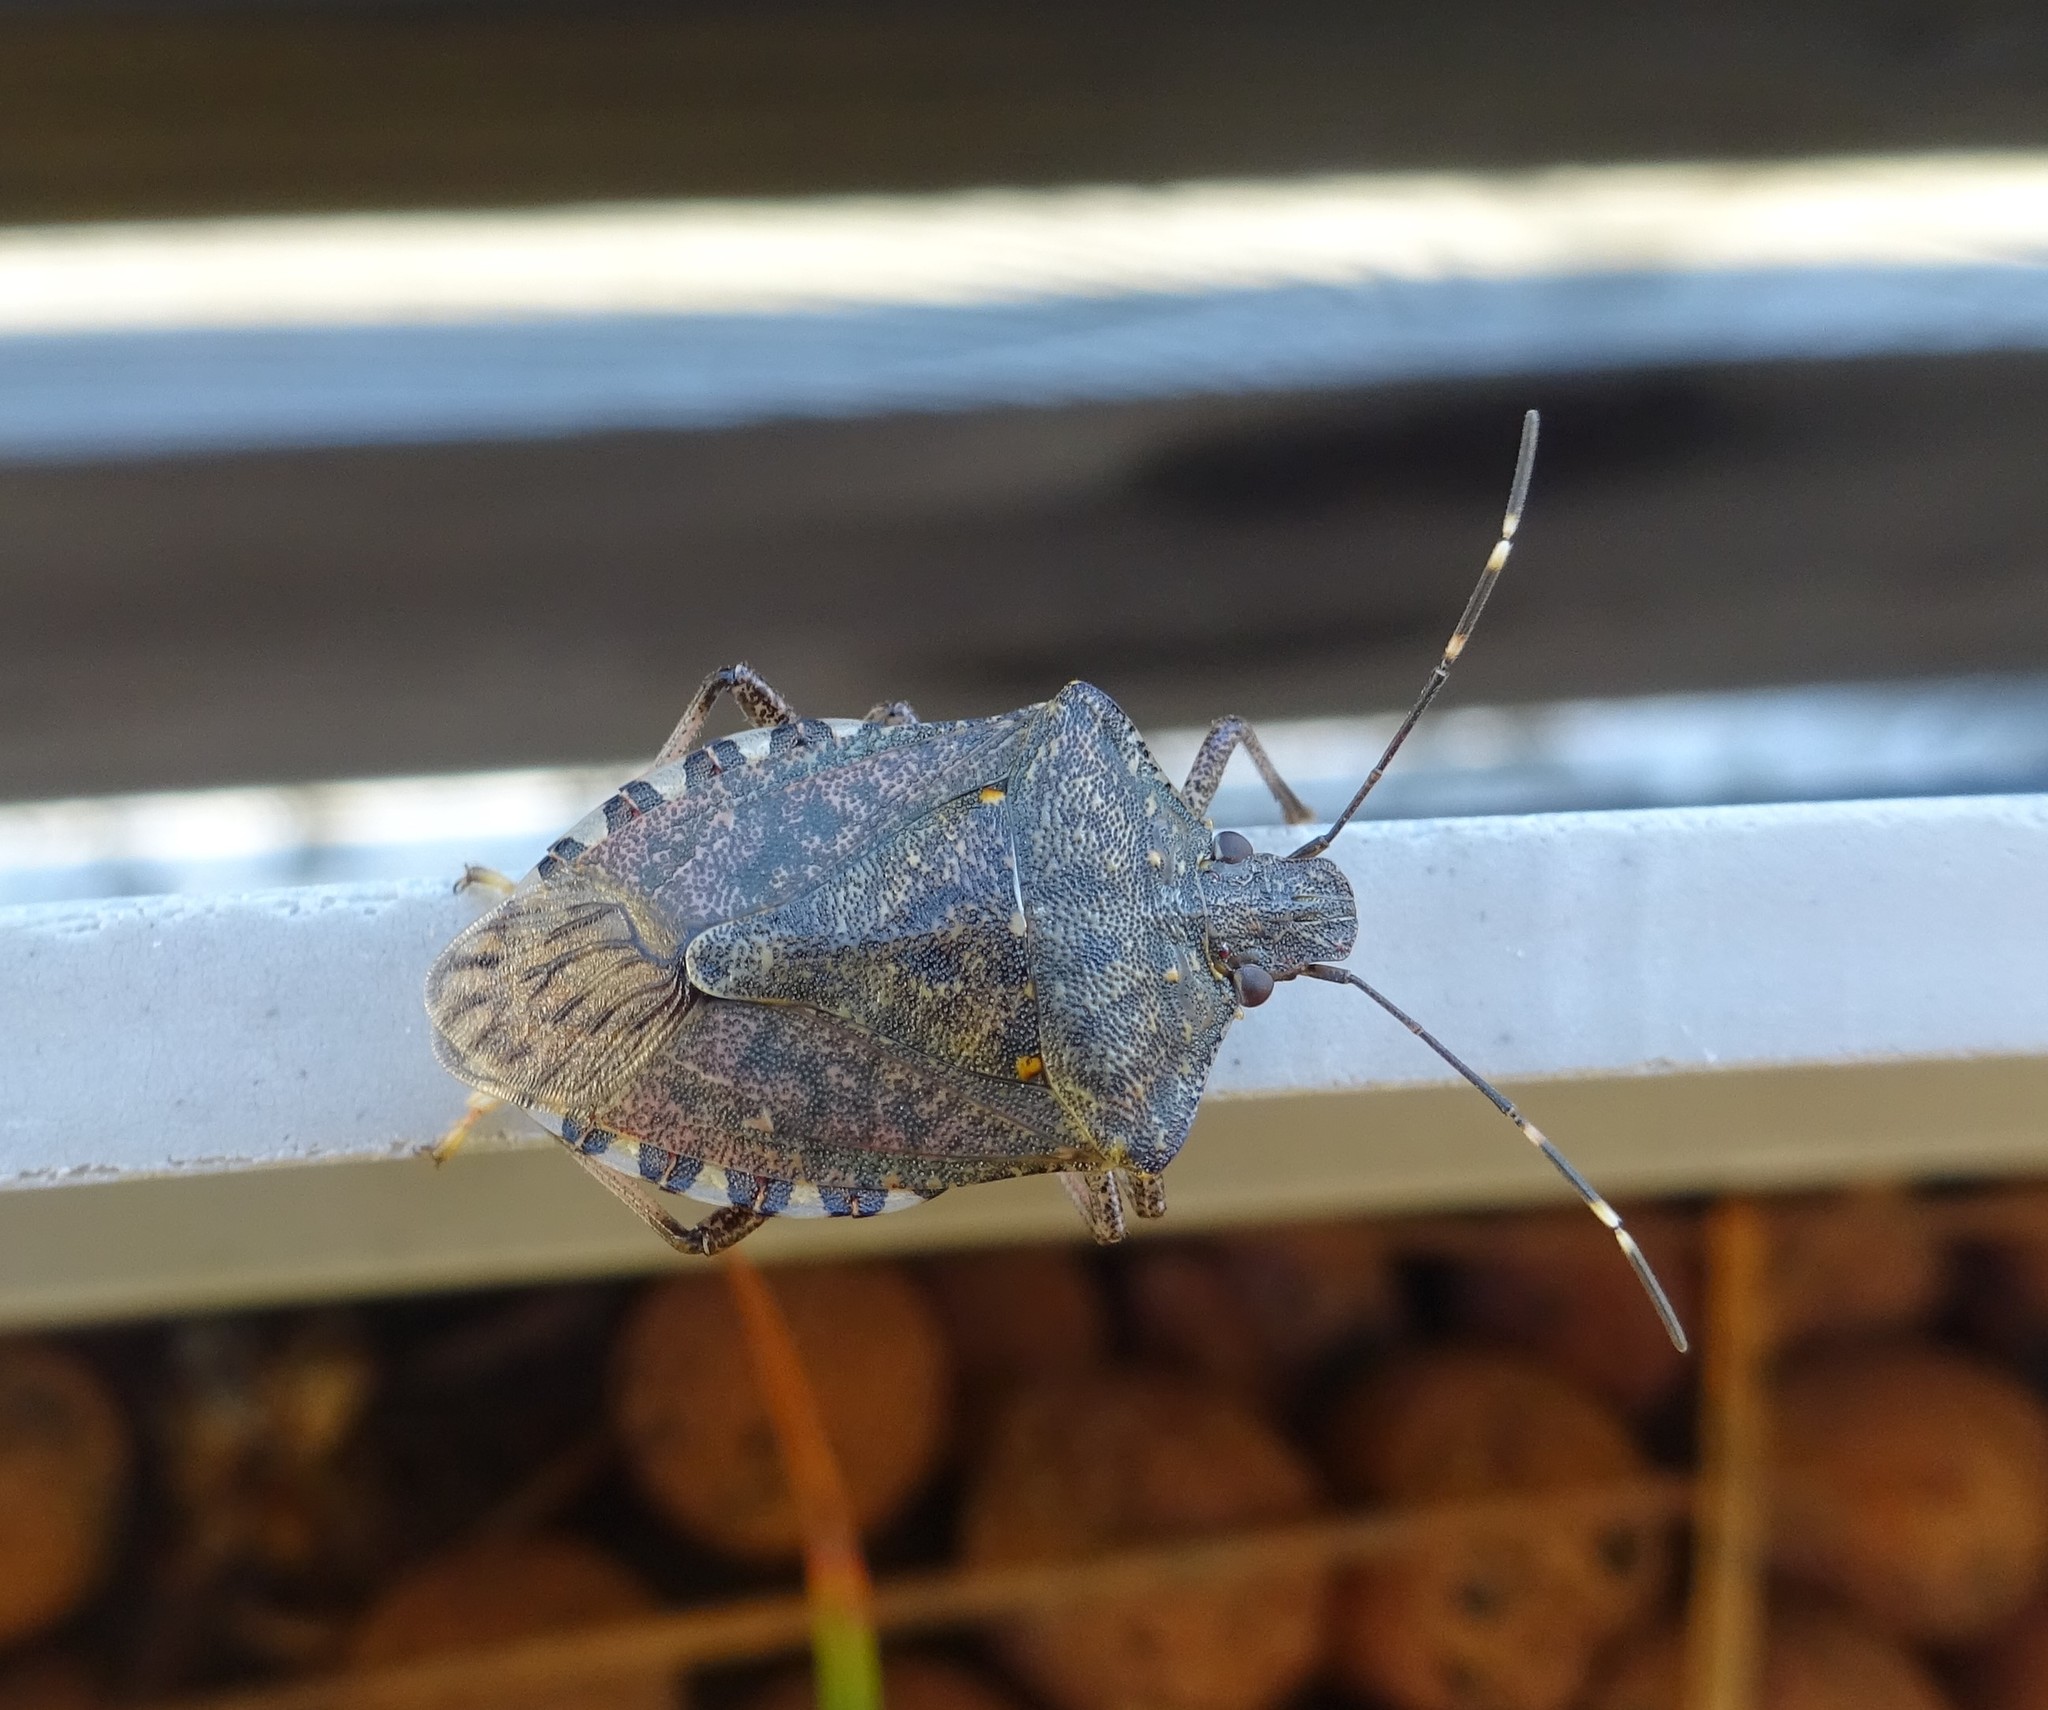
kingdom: Animalia
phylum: Arthropoda
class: Insecta
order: Hemiptera
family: Pentatomidae
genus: Halyomorpha
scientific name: Halyomorpha halys
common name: Brown marmorated stink bug
